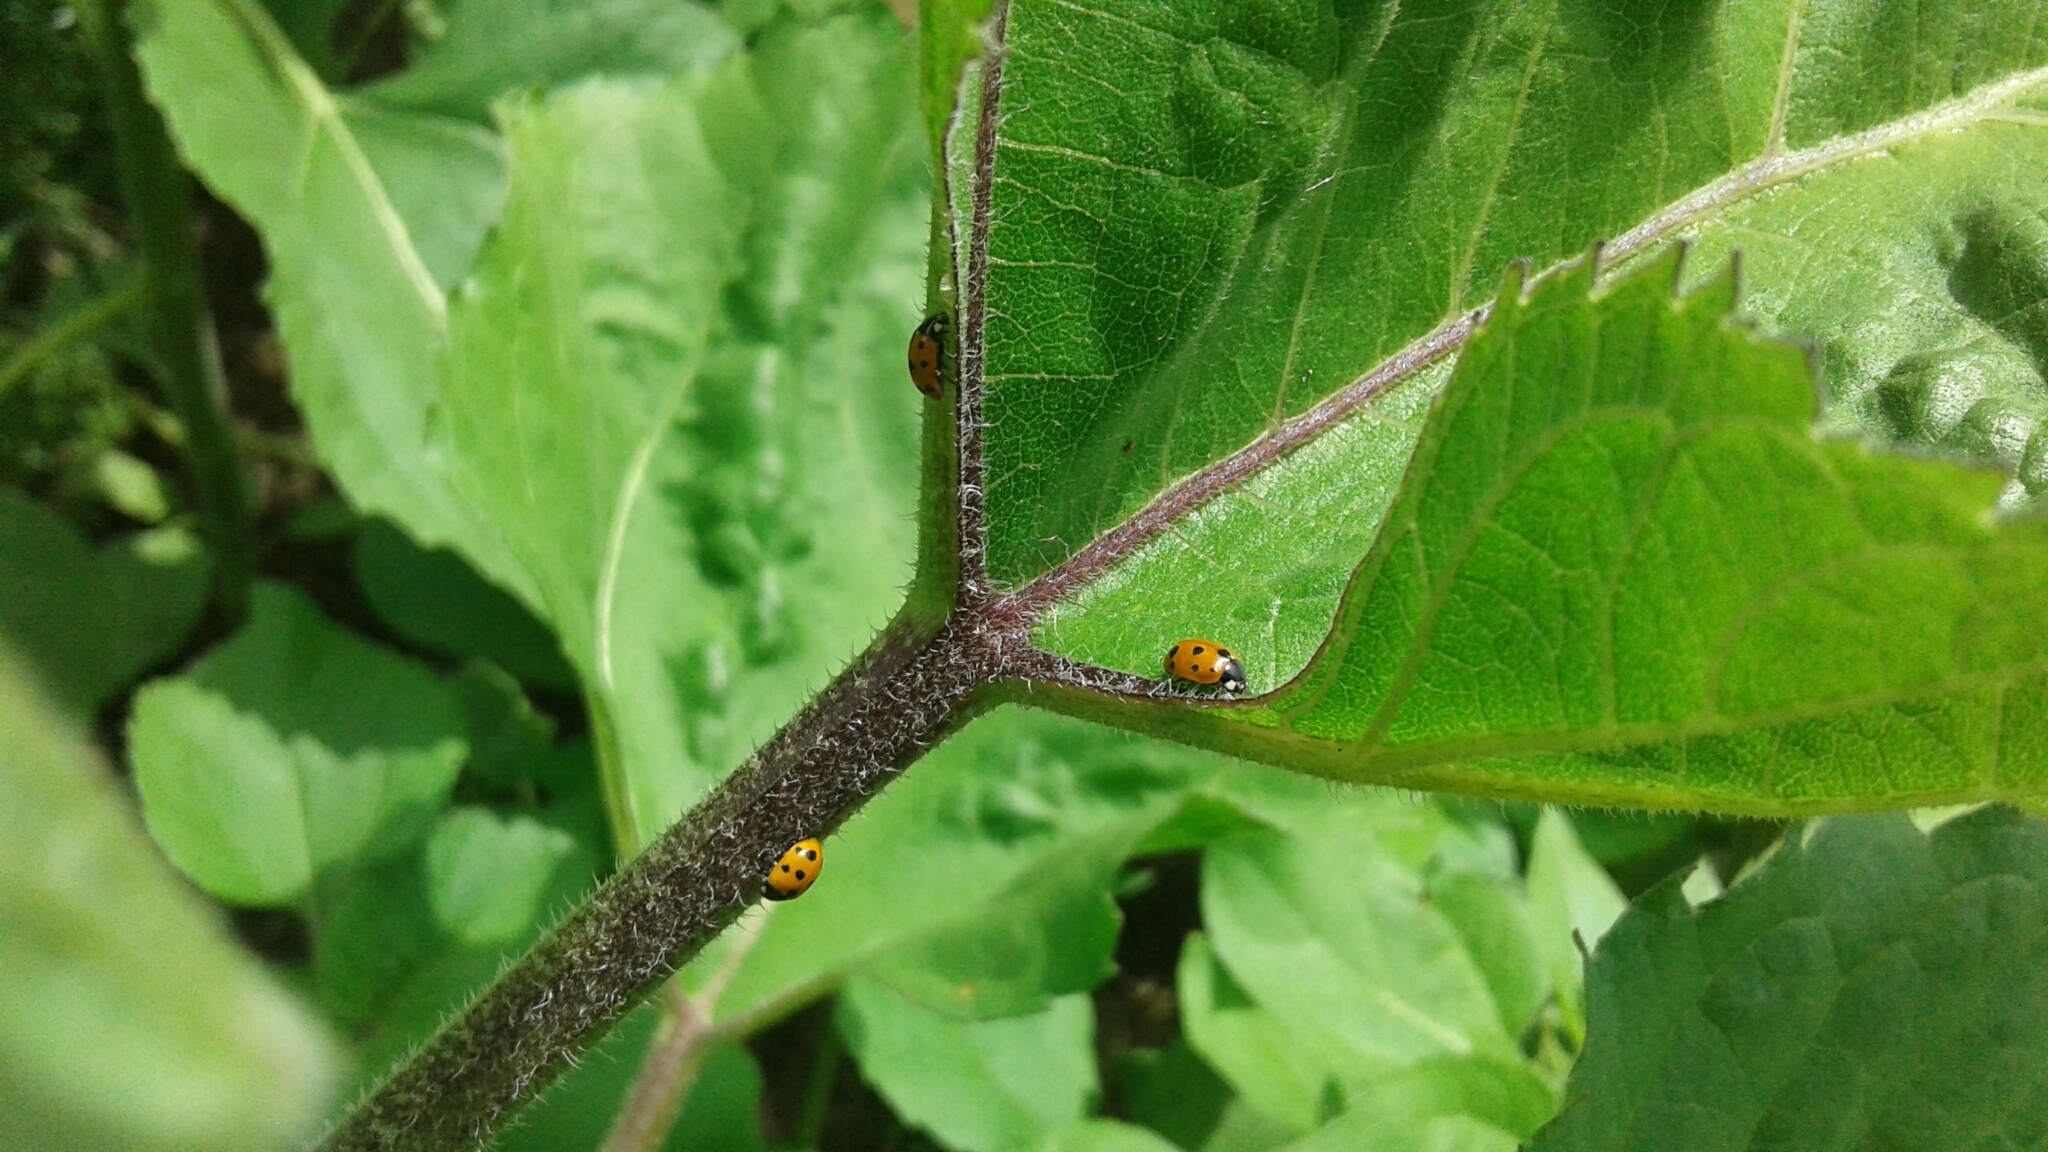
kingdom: Animalia
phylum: Arthropoda
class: Insecta
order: Coleoptera
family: Coccinellidae
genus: Coccinella
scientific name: Coccinella undecimpunctata
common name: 11-spot ladybird
